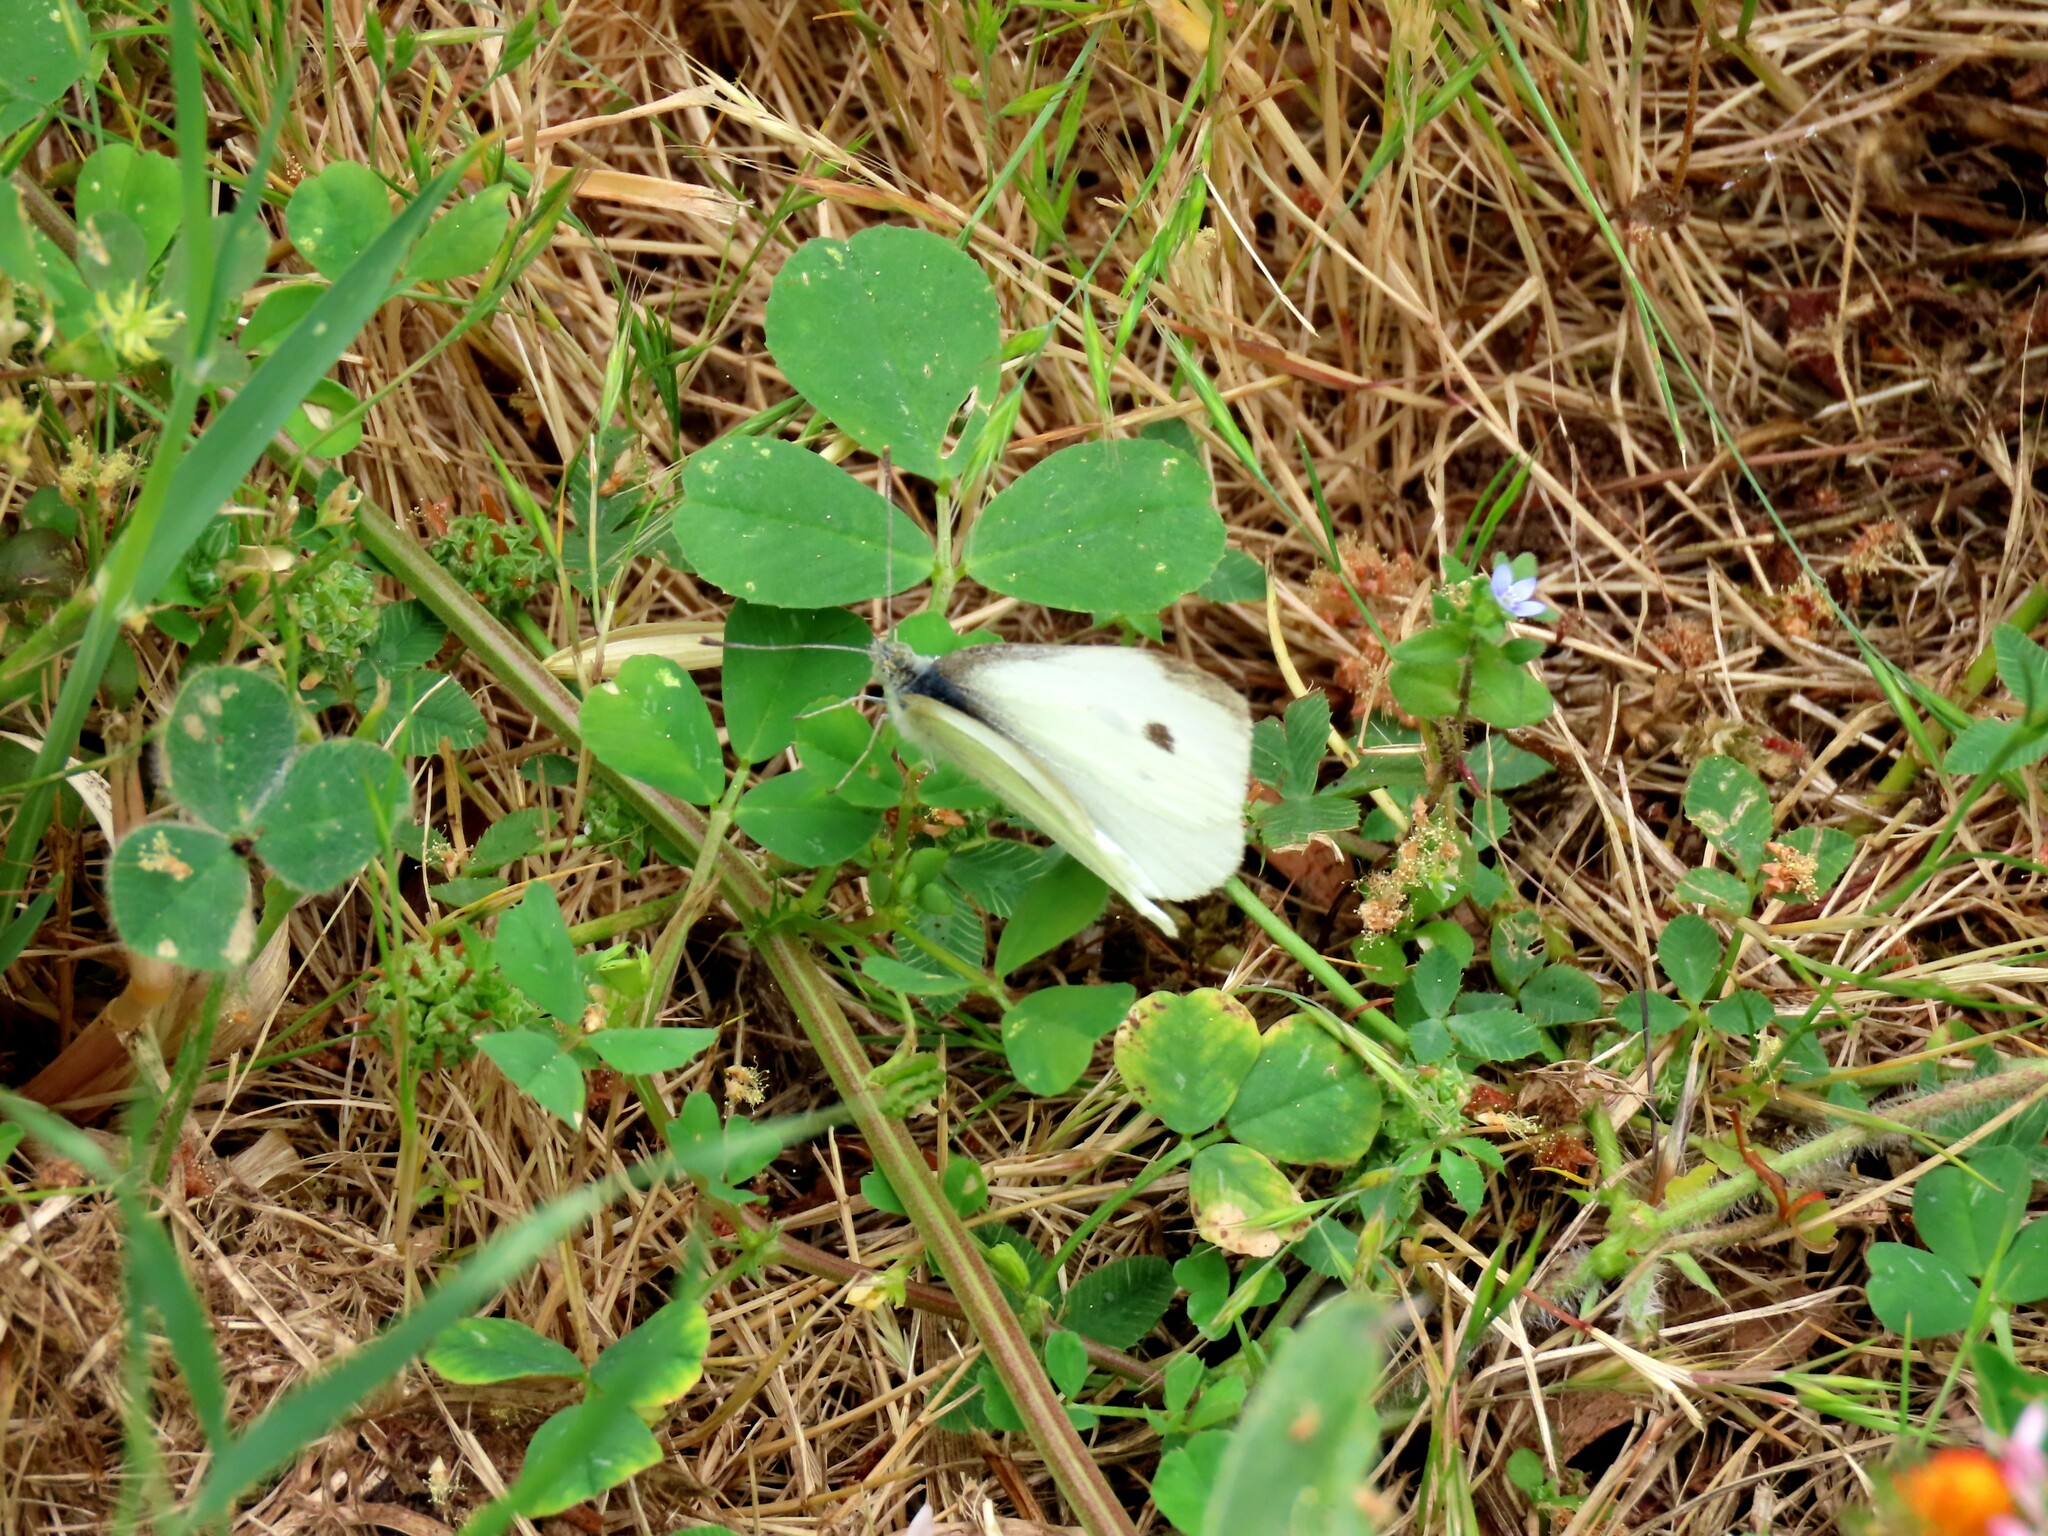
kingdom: Animalia
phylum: Arthropoda
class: Insecta
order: Lepidoptera
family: Pieridae
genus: Pieris
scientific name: Pieris rapae
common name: Small white
